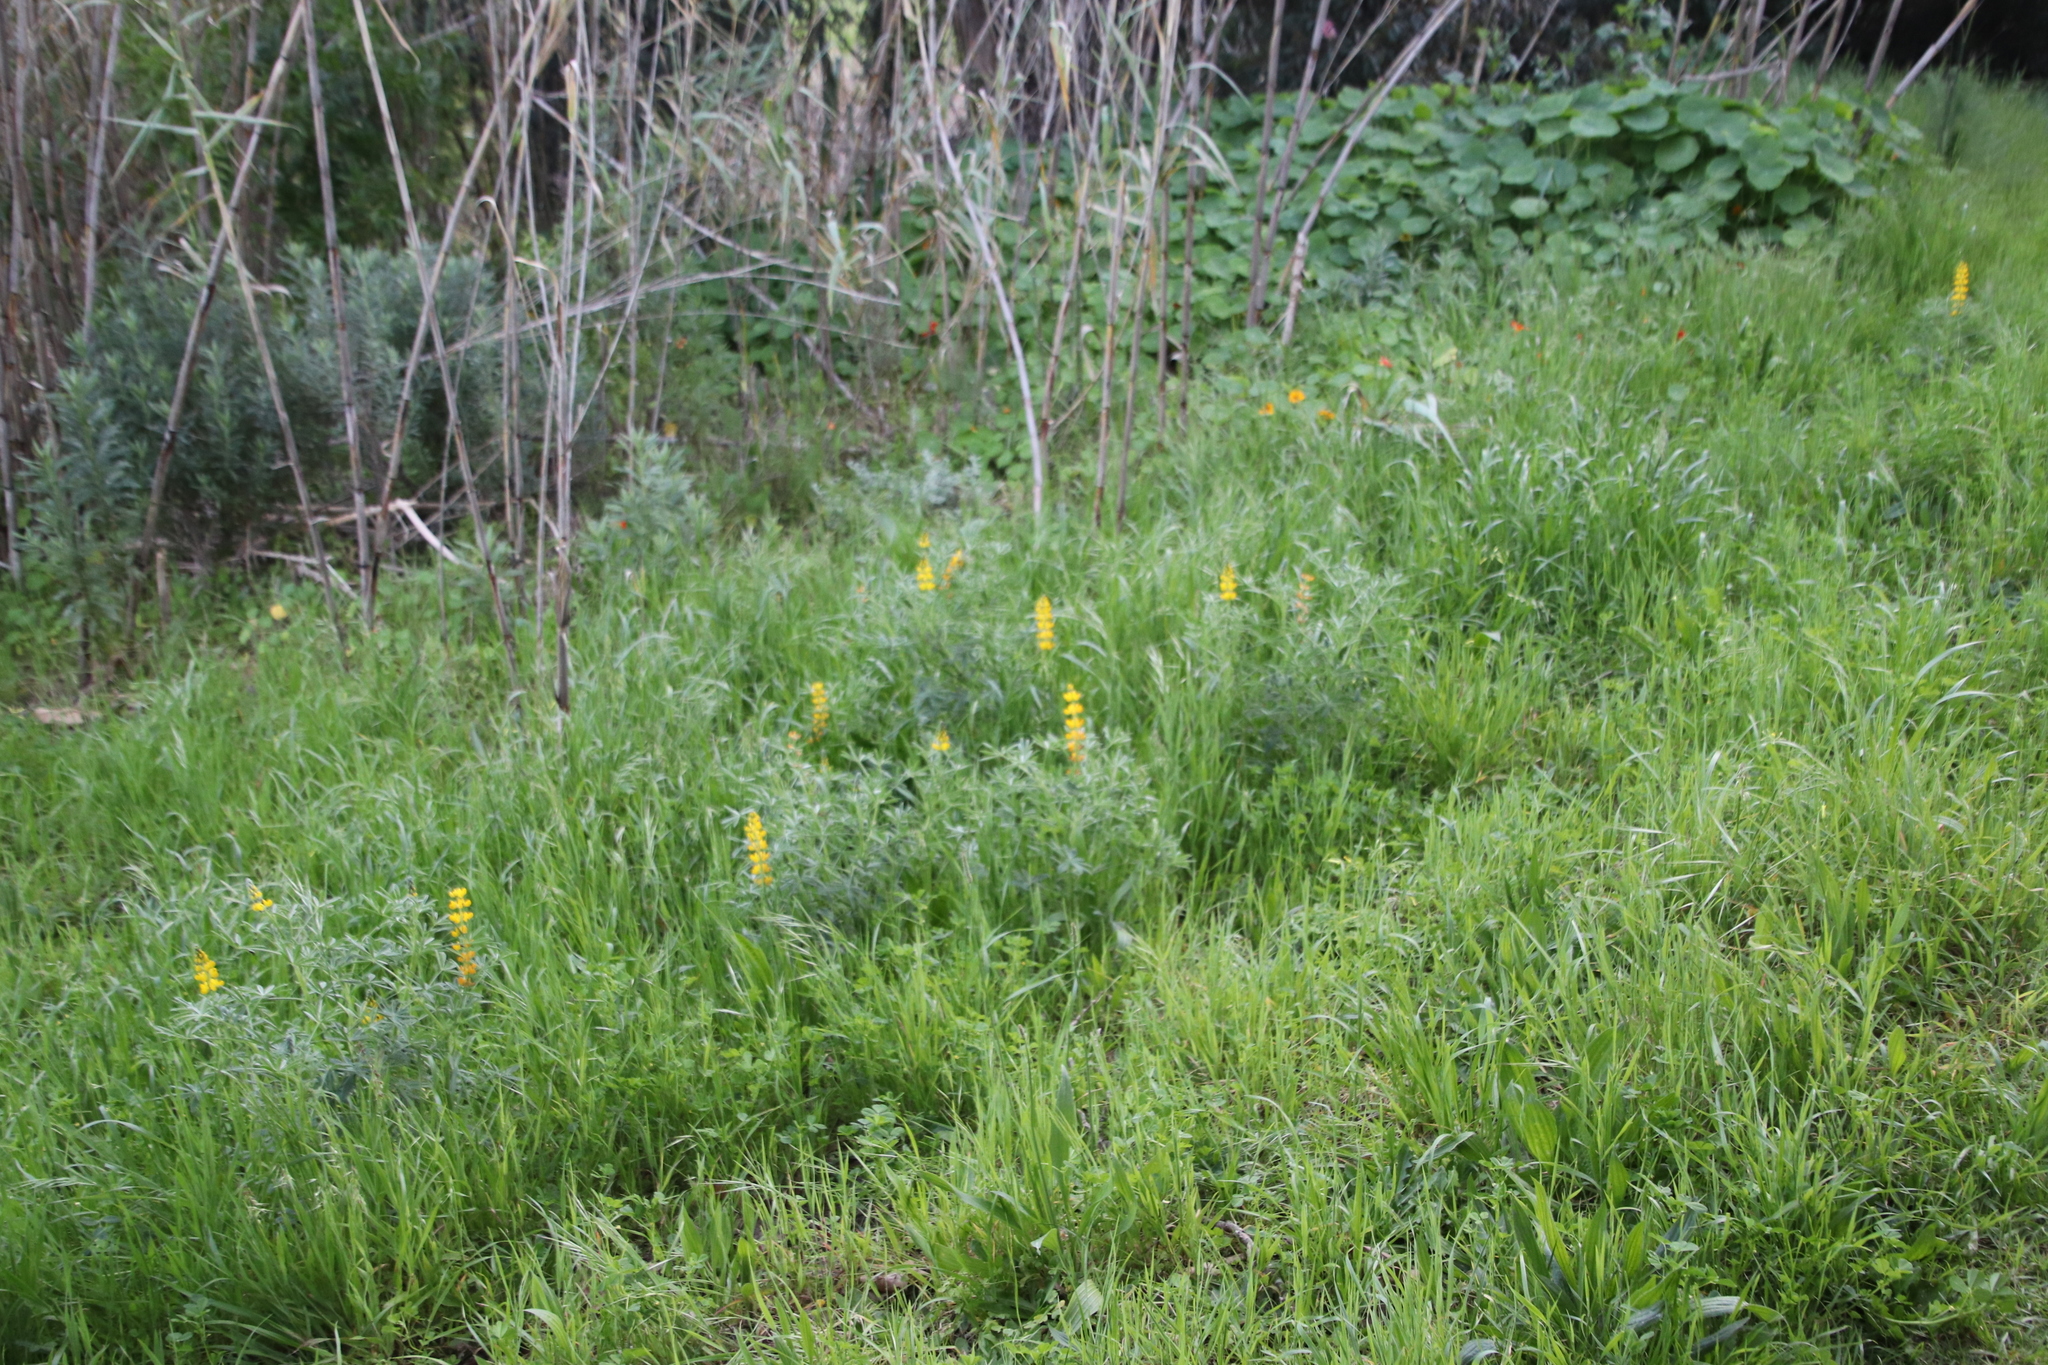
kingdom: Plantae
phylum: Tracheophyta
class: Magnoliopsida
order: Fabales
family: Fabaceae
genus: Lupinus
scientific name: Lupinus luteus
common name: European yellow lupine
